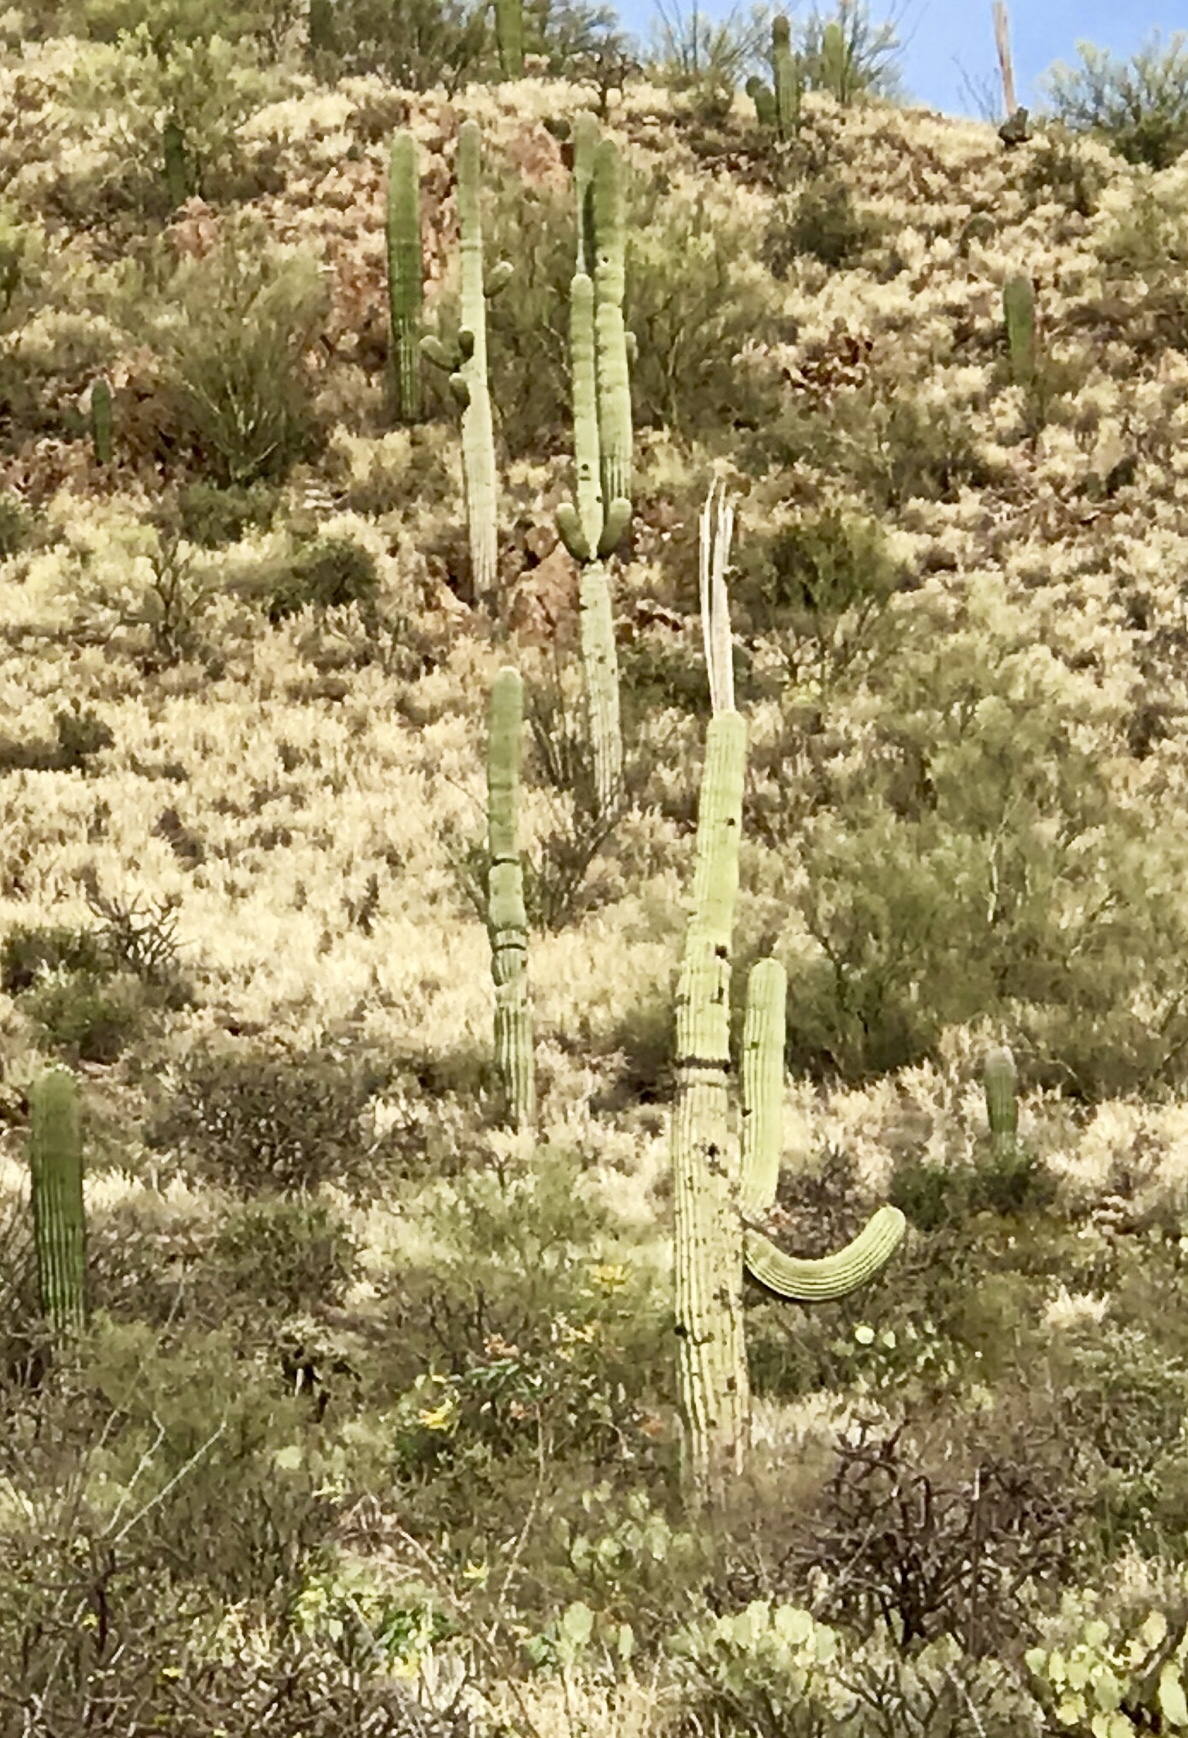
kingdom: Plantae
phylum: Tracheophyta
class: Magnoliopsida
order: Caryophyllales
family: Cactaceae
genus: Carnegiea
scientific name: Carnegiea gigantea
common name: Saguaro
